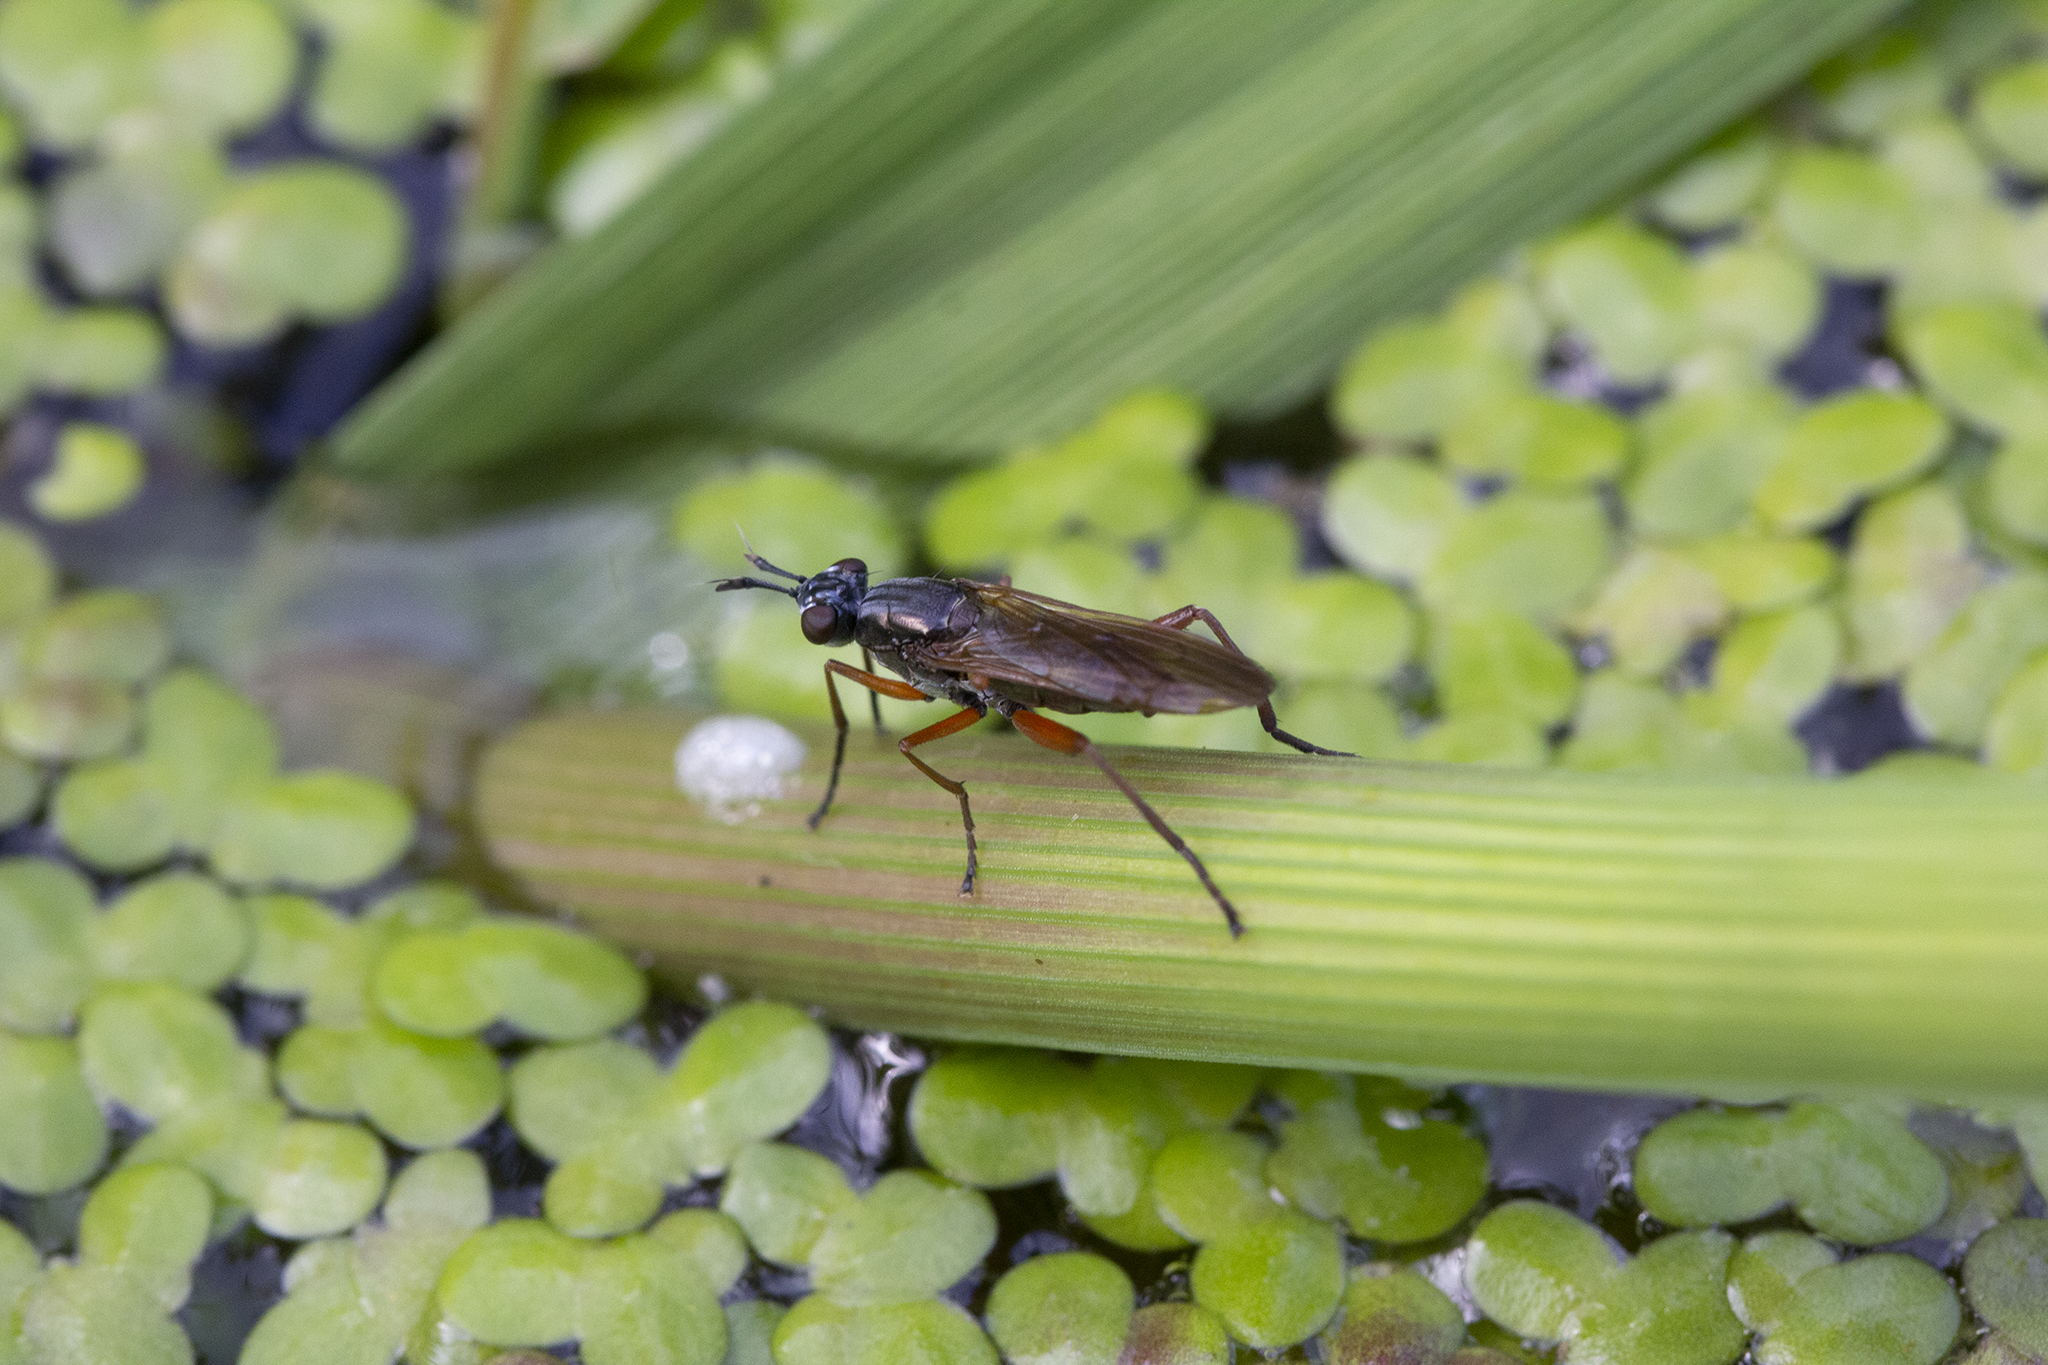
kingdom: Animalia
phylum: Arthropoda
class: Insecta
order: Diptera
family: Sciomyzidae
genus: Sepedon
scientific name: Sepedon sphegea
